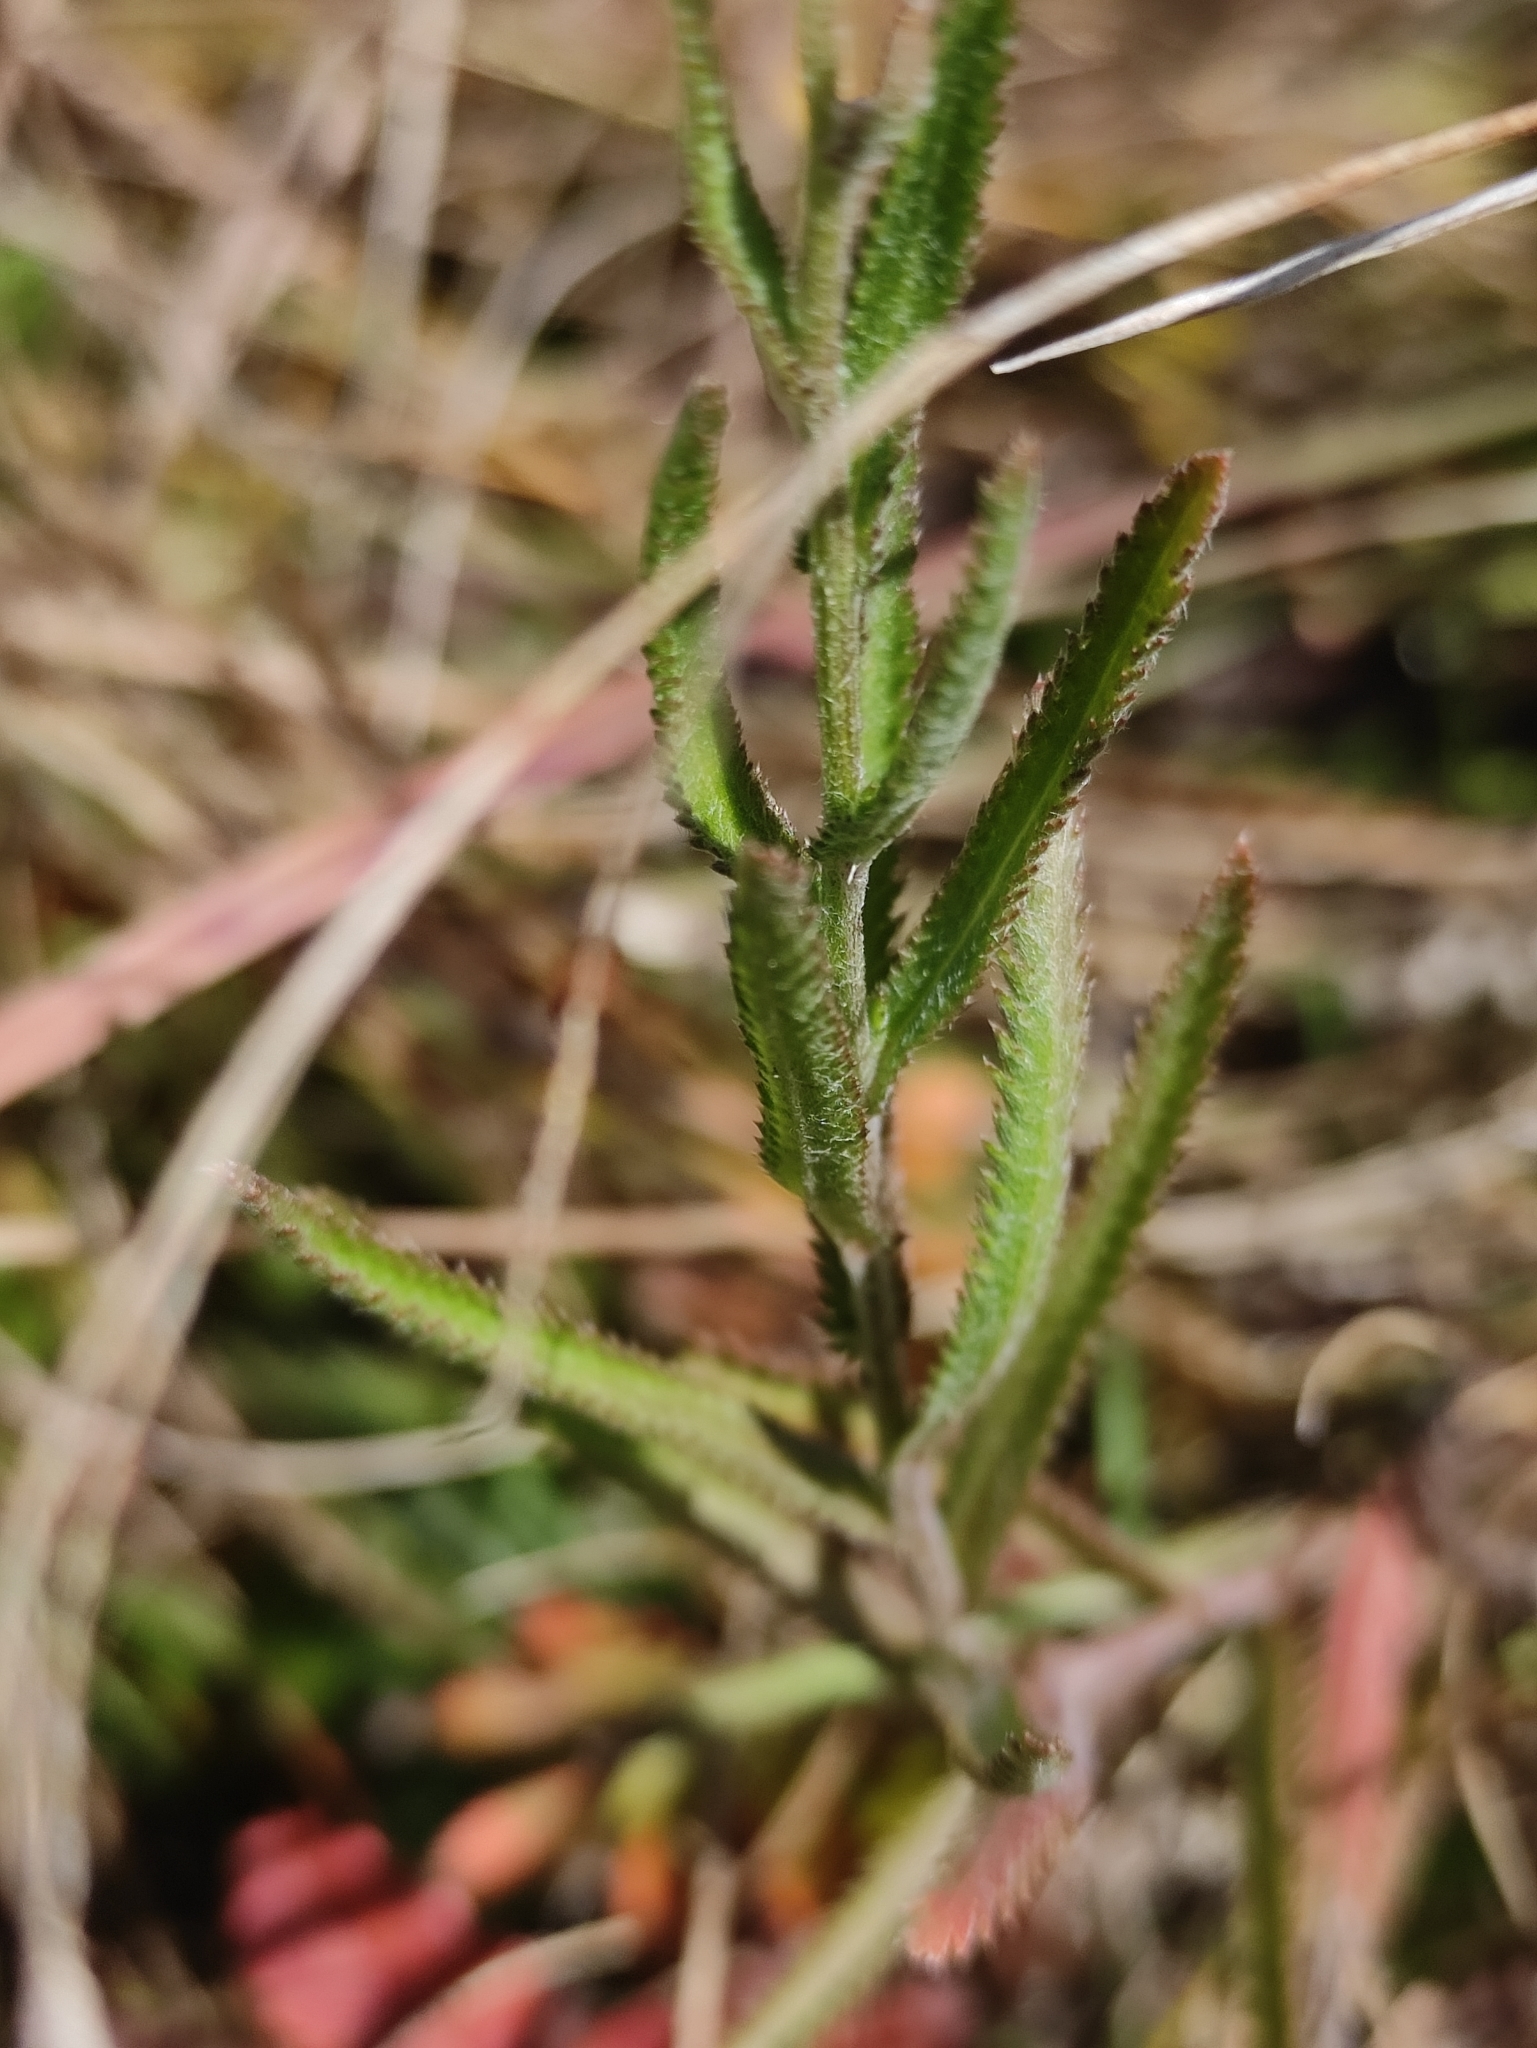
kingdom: Plantae
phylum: Tracheophyta
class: Magnoliopsida
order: Asterales
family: Asteraceae
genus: Achillea
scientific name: Achillea alpina
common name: Siberian yarrow
